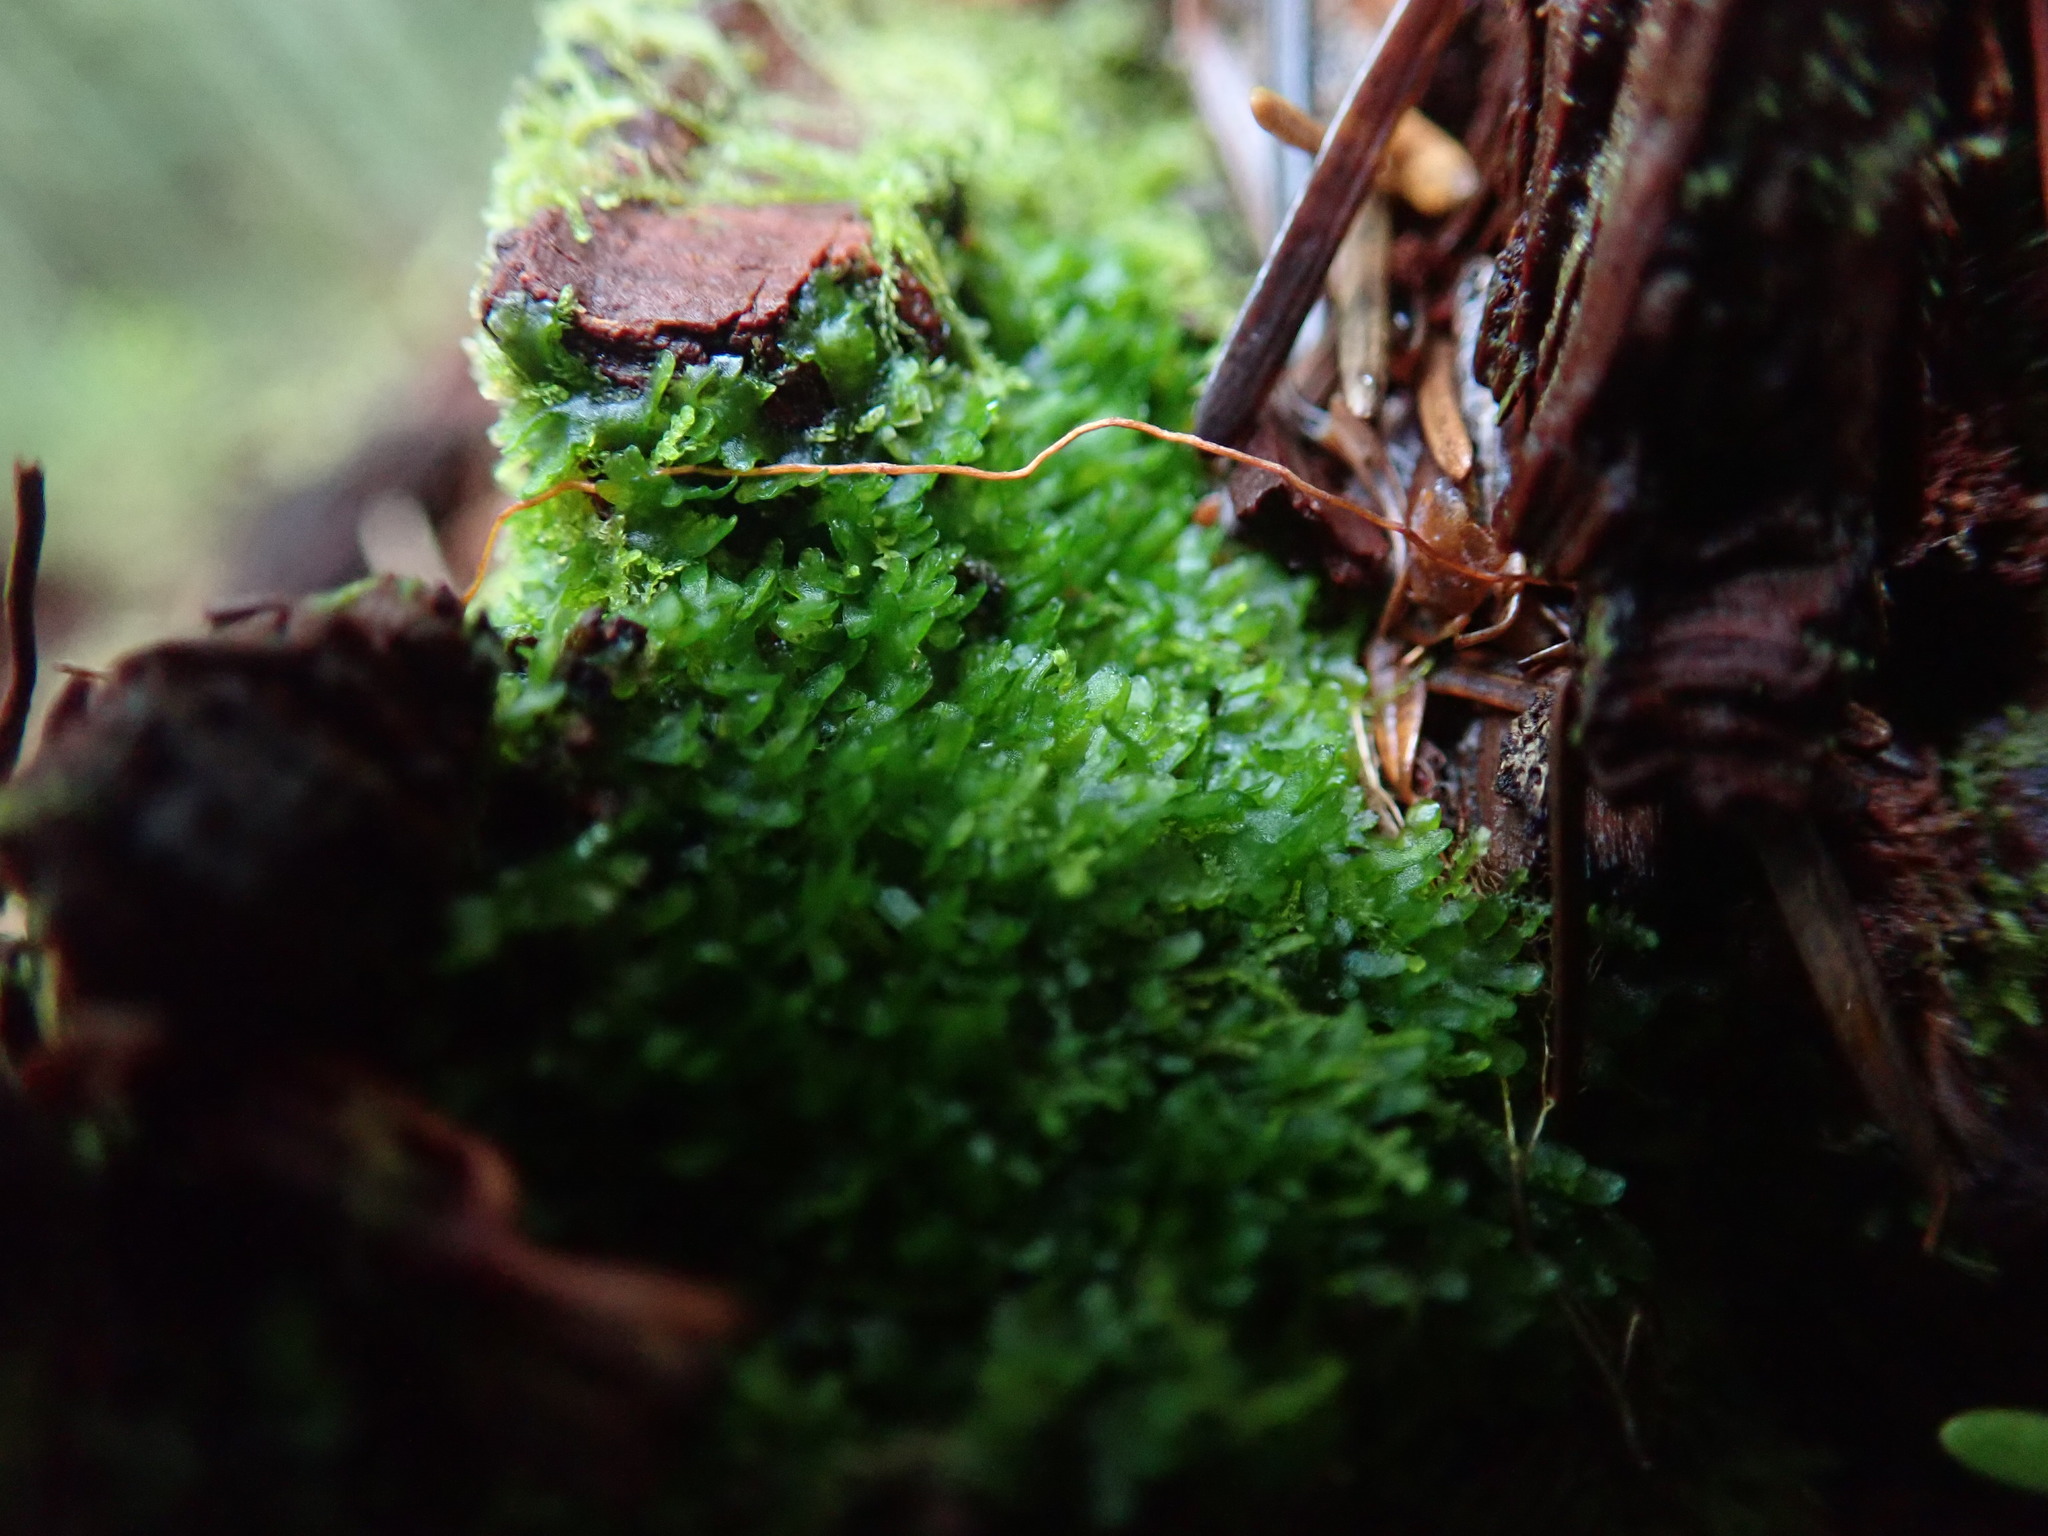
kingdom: Plantae
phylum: Marchantiophyta
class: Jungermanniopsida
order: Metzgeriales
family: Aneuraceae
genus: Riccardia
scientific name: Riccardia latifrons
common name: Bog germanderwort
